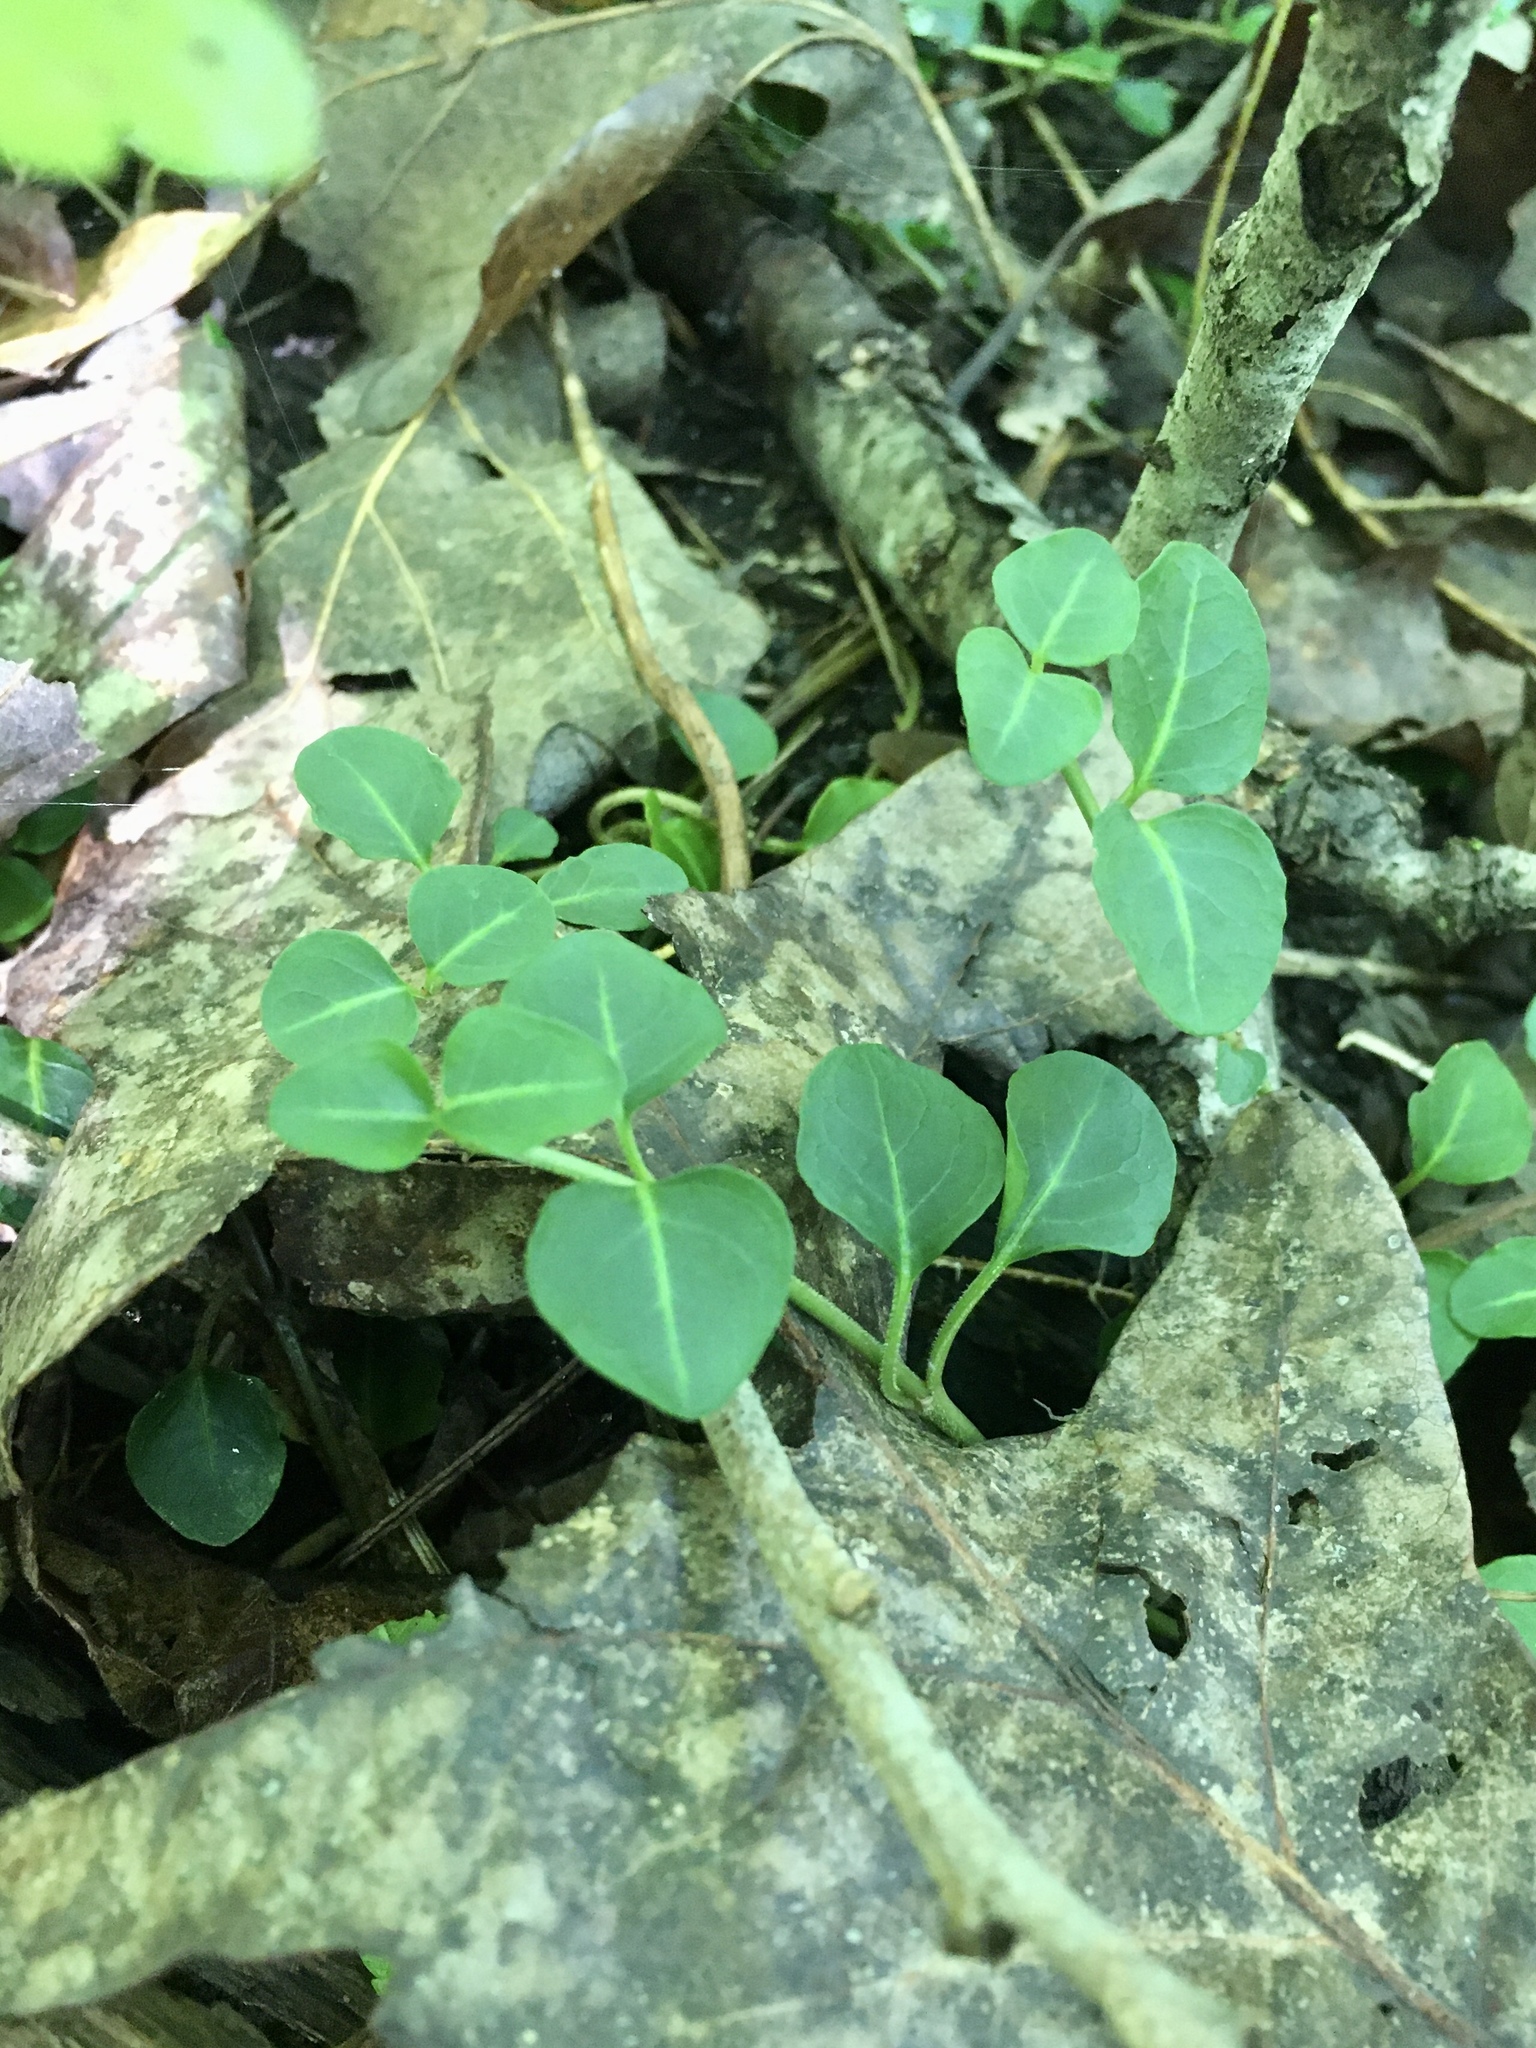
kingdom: Plantae
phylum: Tracheophyta
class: Magnoliopsida
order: Gentianales
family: Rubiaceae
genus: Mitchella
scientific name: Mitchella repens
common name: Partridge-berry
